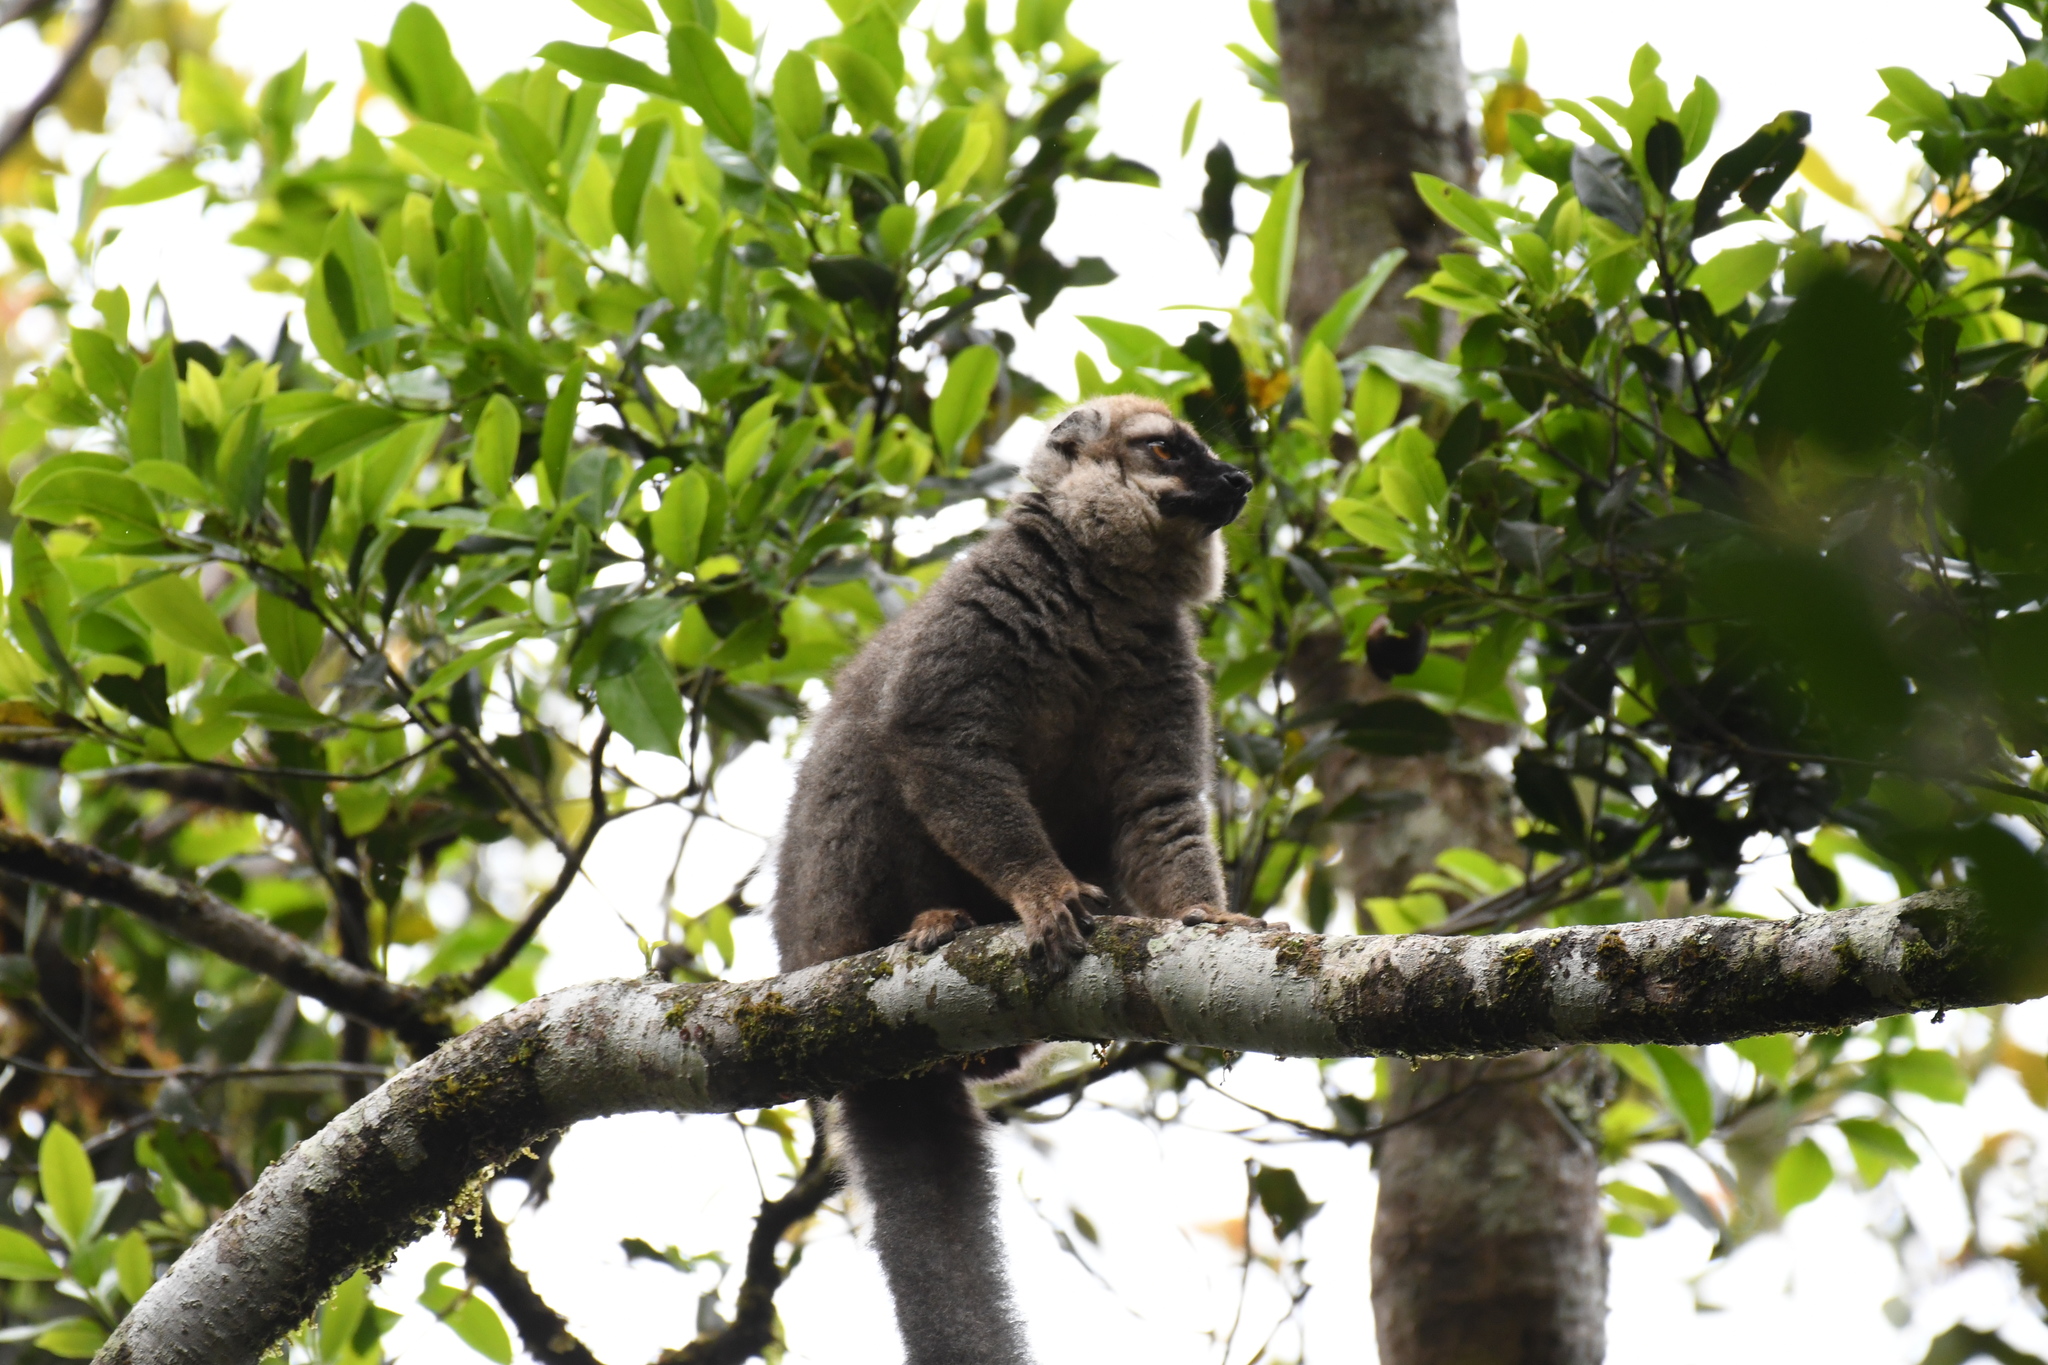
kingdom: Animalia
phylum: Chordata
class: Mammalia
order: Primates
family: Lemuridae
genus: Eulemur
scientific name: Eulemur rufifrons
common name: Red-fronted brown lemur
